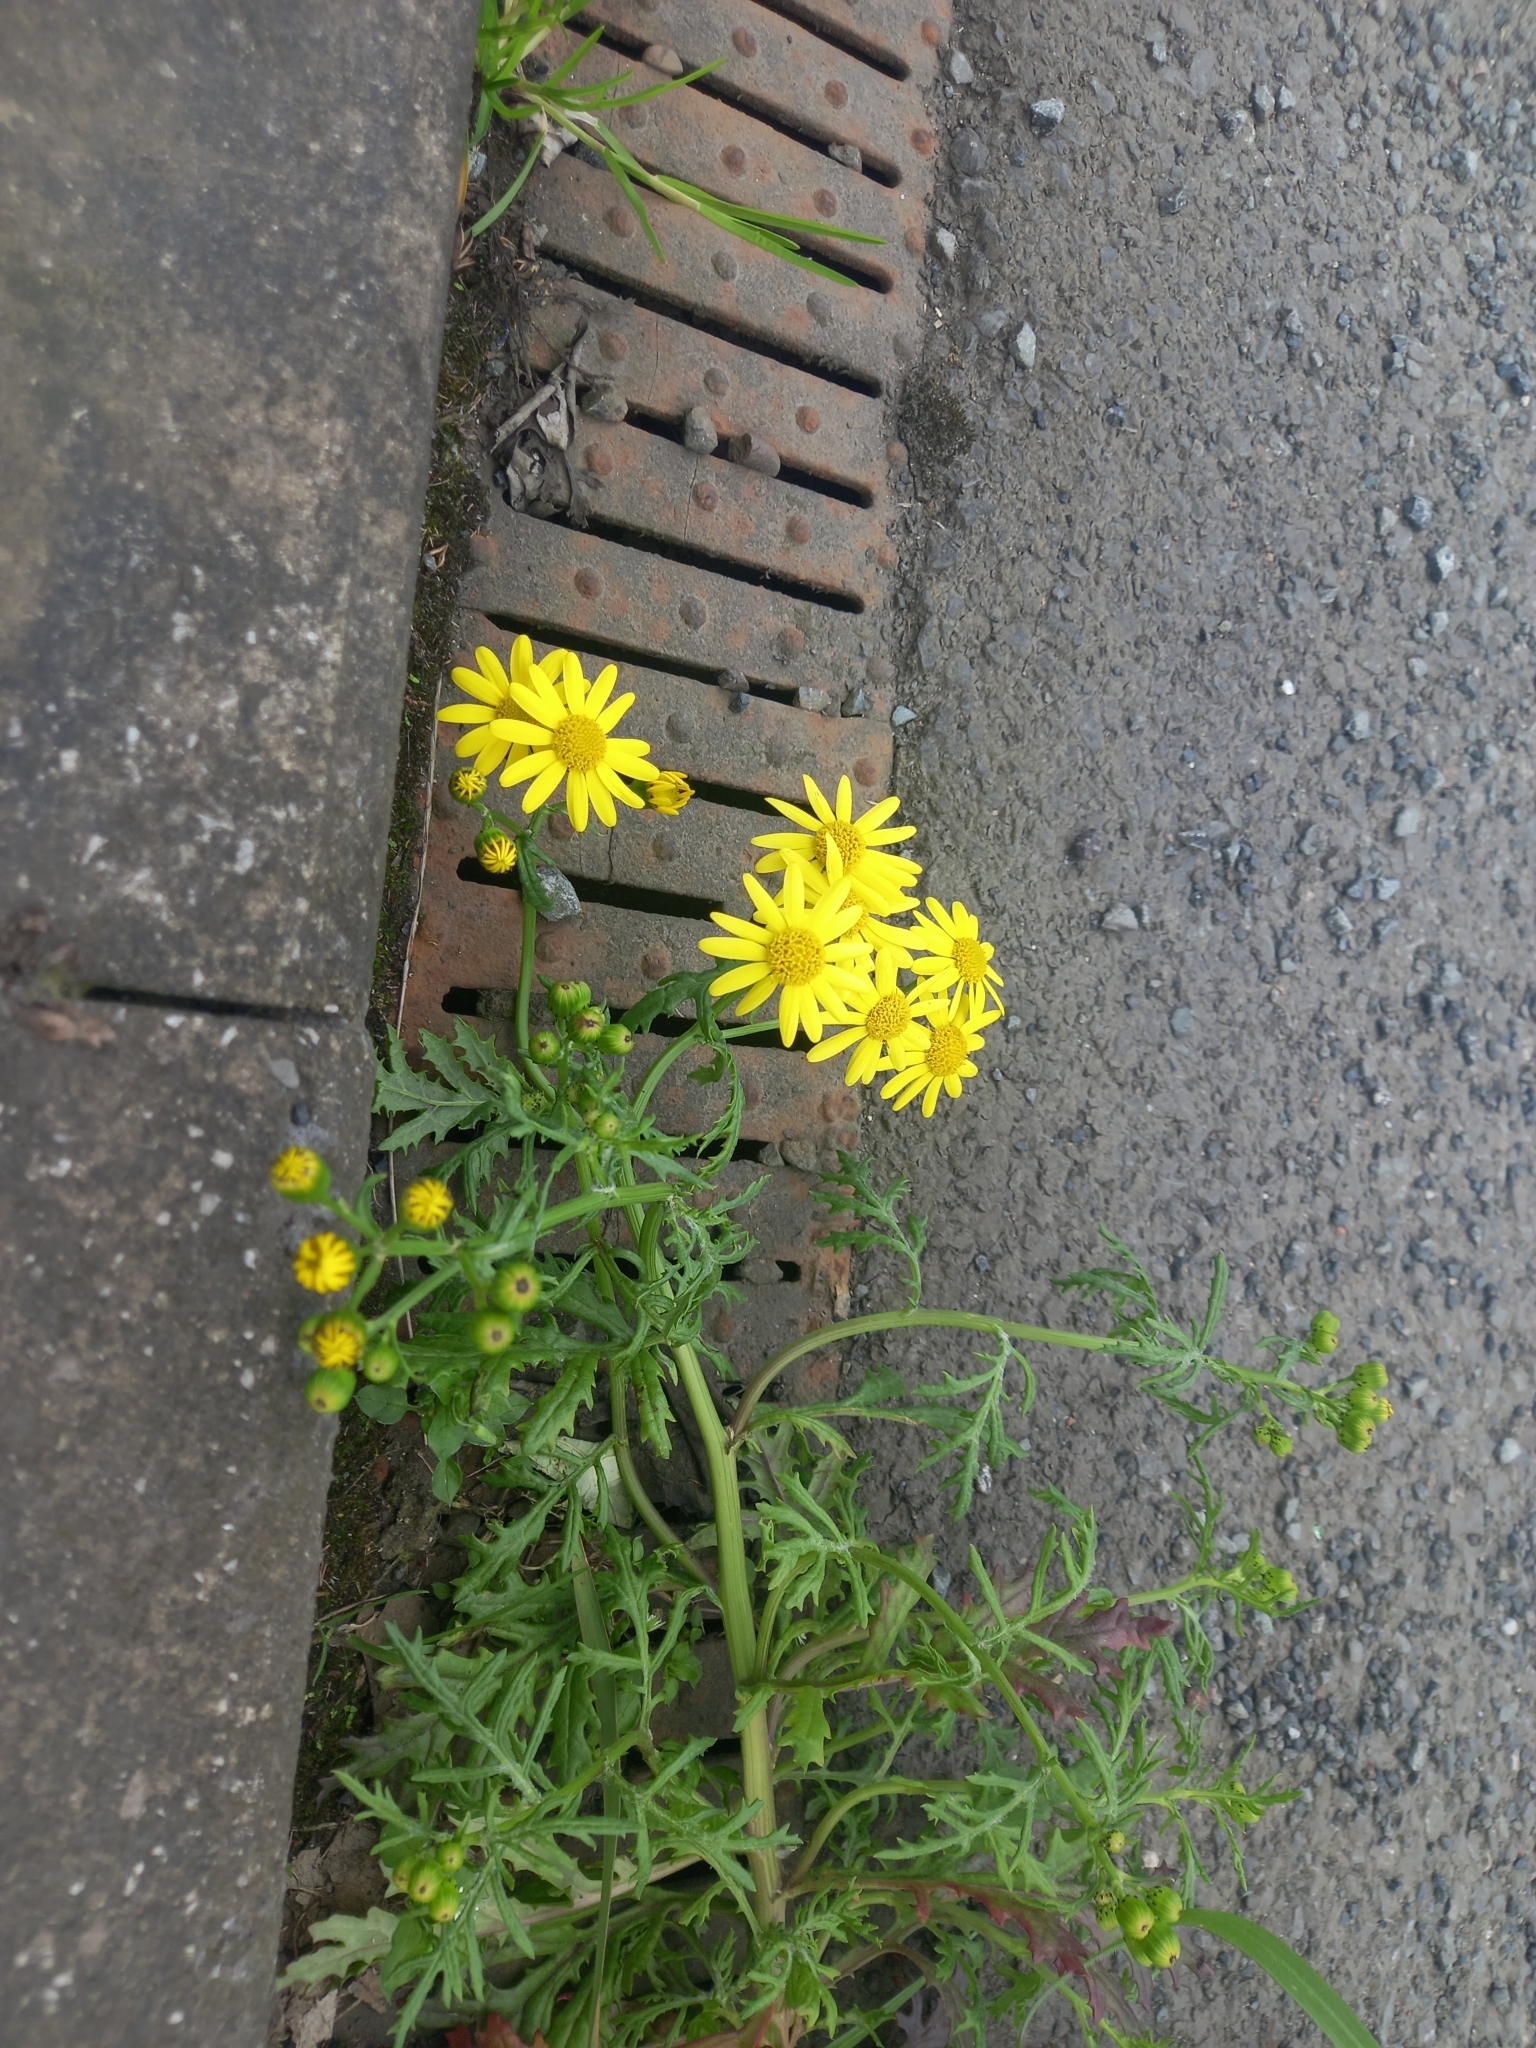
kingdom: Plantae
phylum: Tracheophyta
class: Magnoliopsida
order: Asterales
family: Asteraceae
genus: Senecio
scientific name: Senecio squalidus
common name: Oxford ragwort
